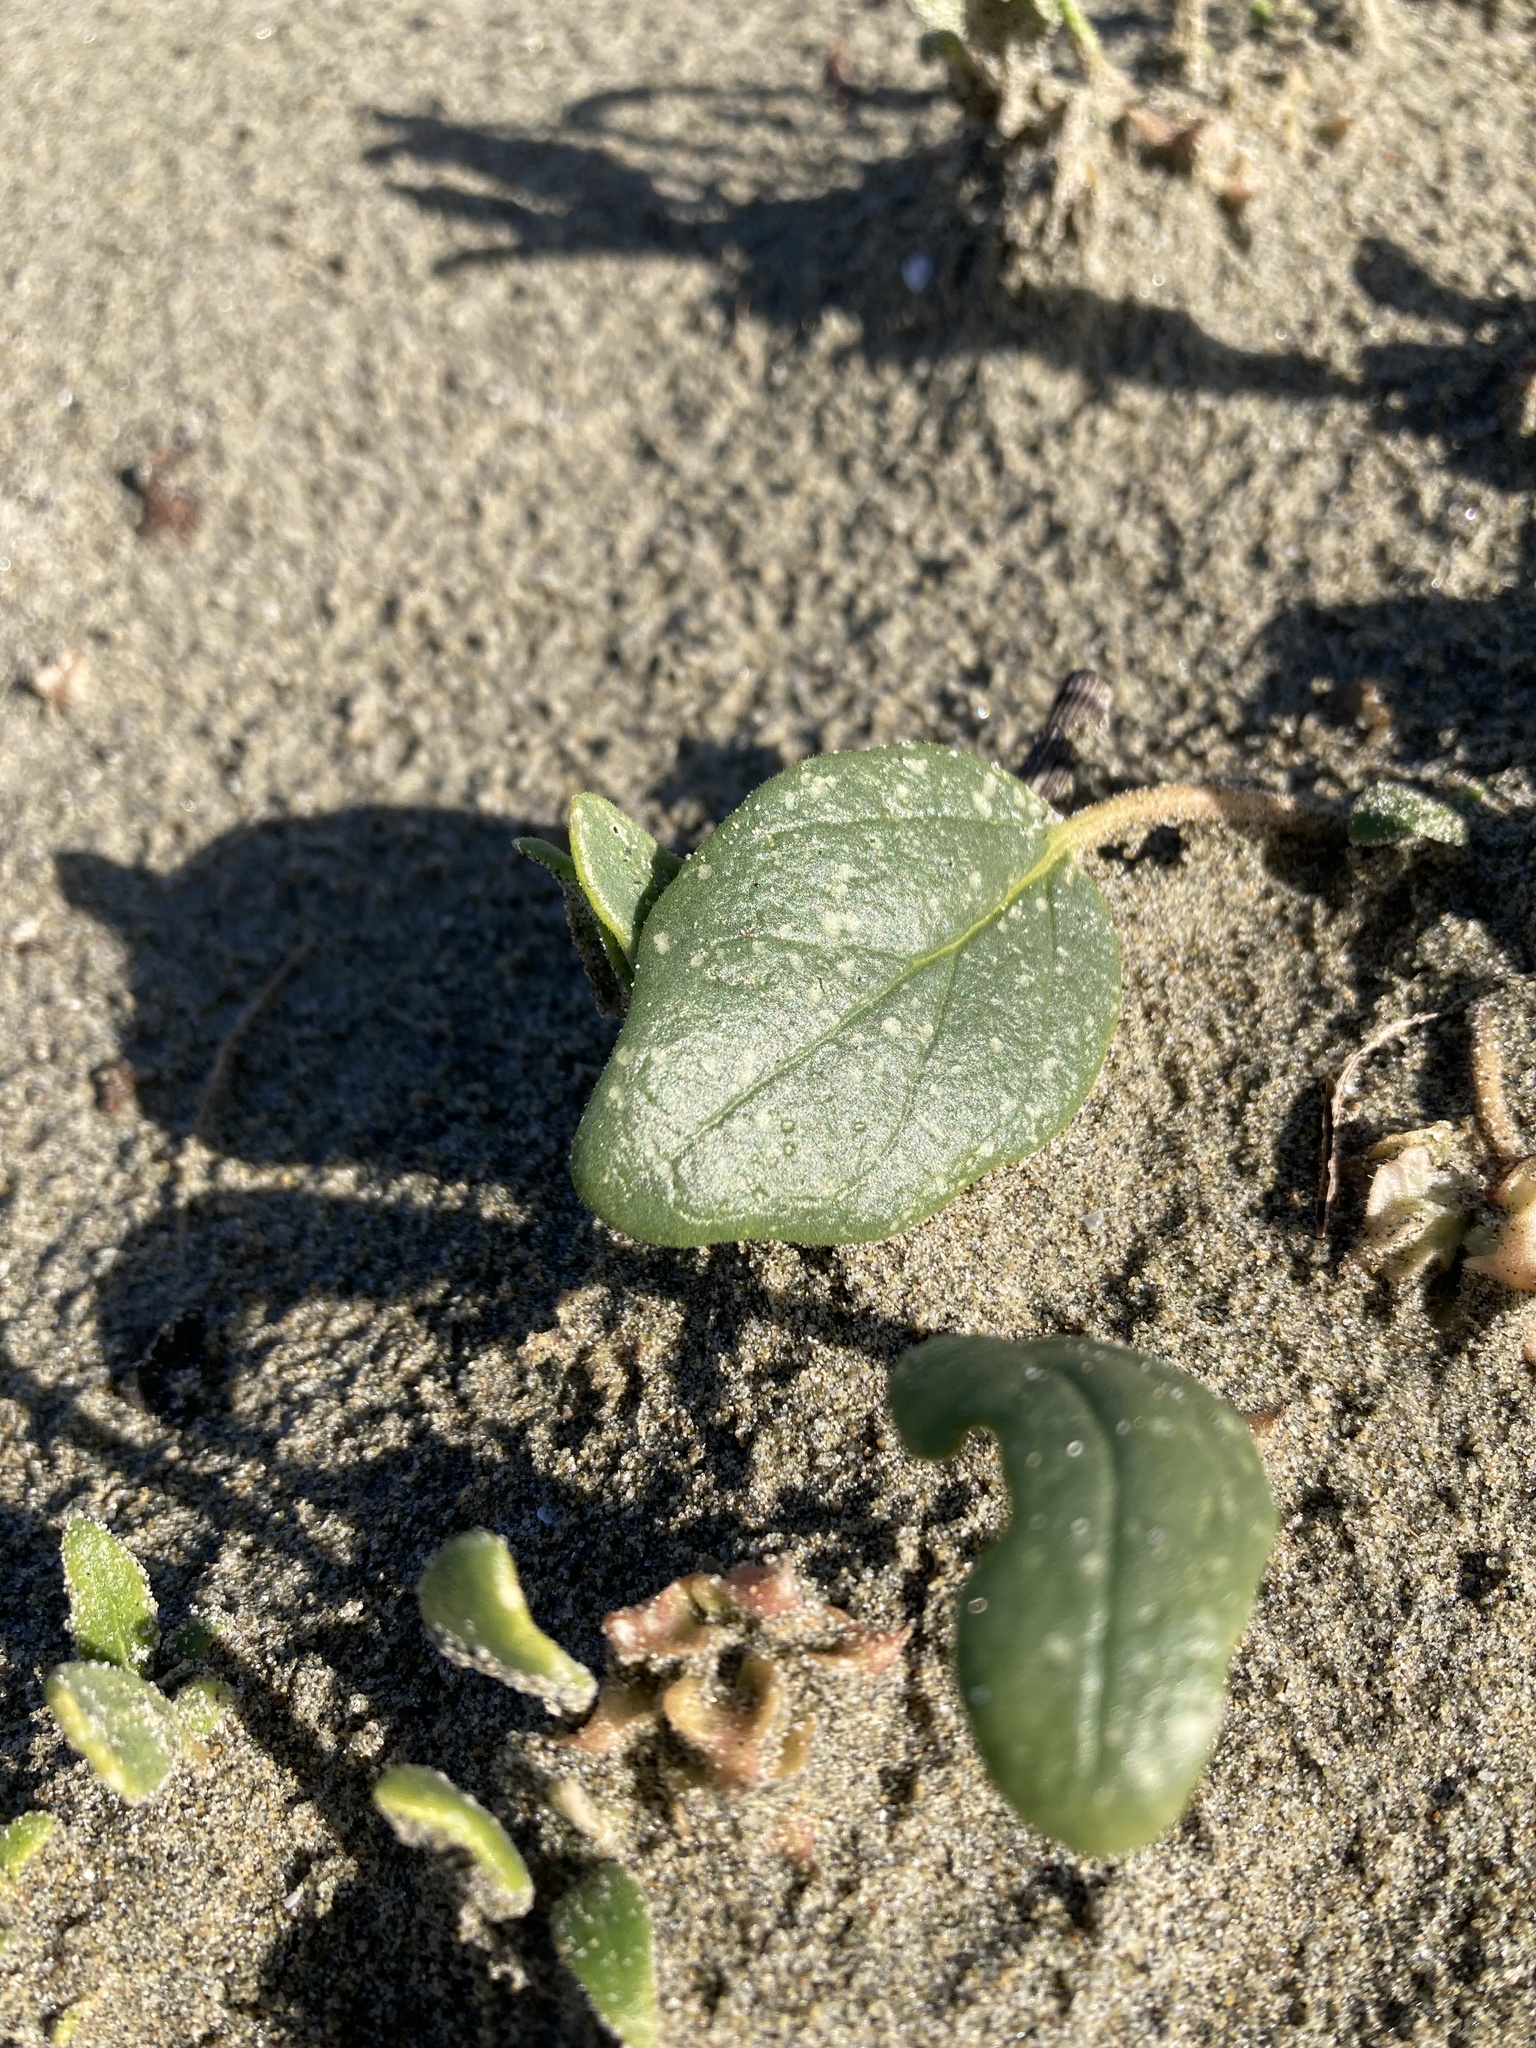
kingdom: Plantae
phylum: Tracheophyta
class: Magnoliopsida
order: Caryophyllales
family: Nyctaginaceae
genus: Abronia
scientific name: Abronia umbellata
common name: Sand-verbena
